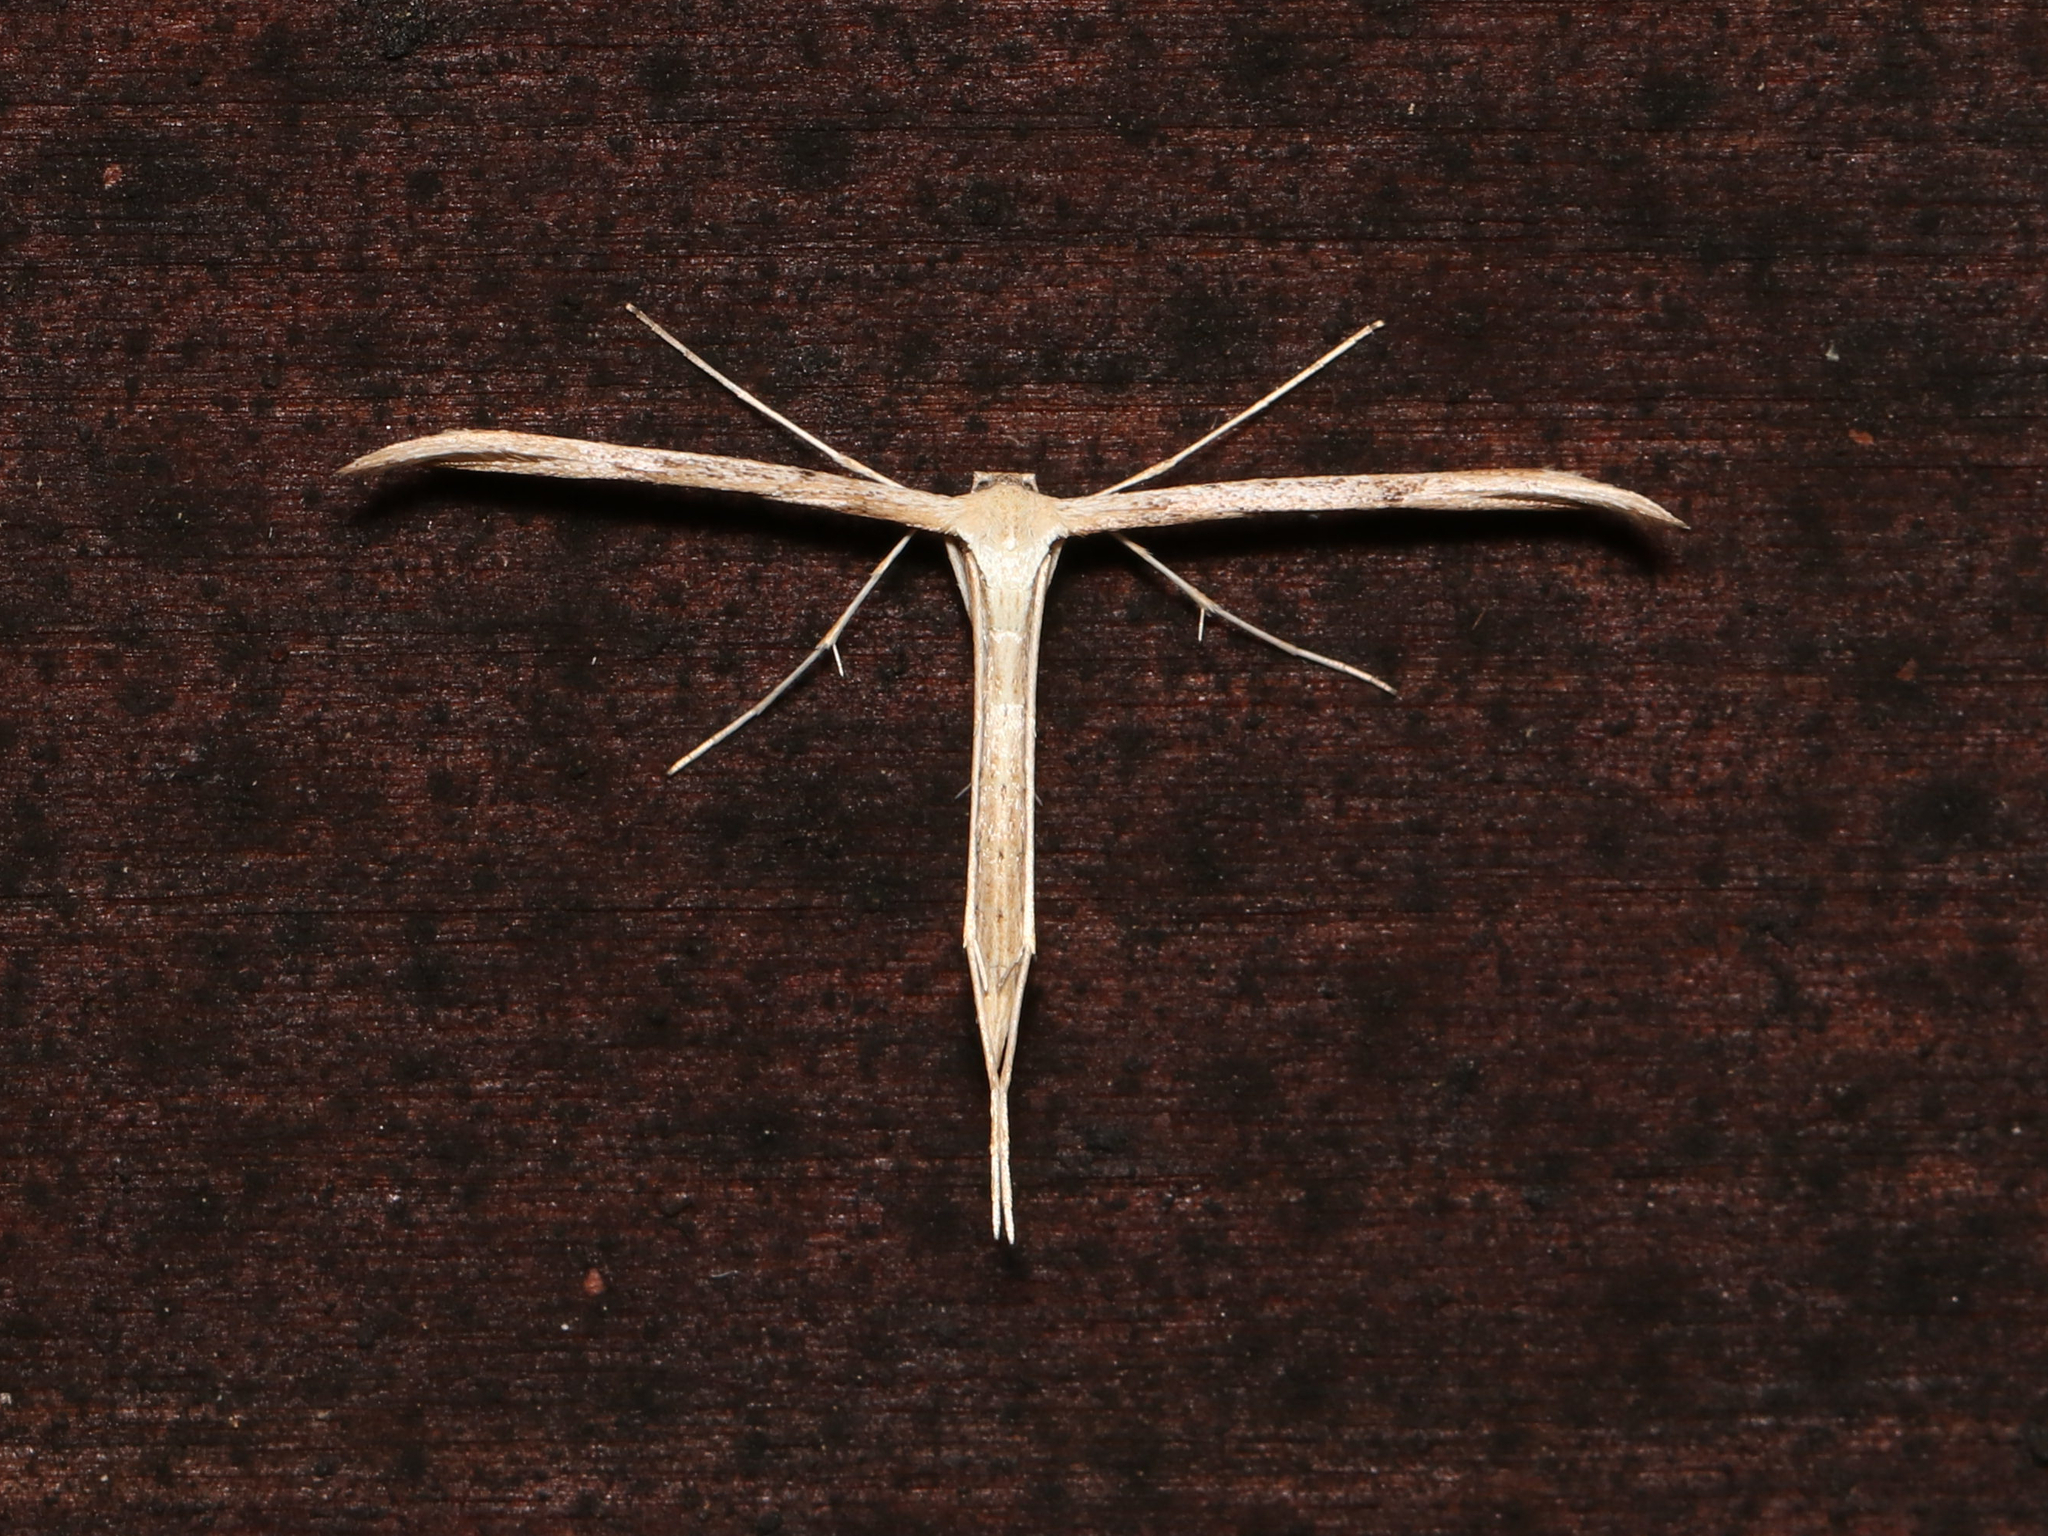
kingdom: Animalia
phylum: Arthropoda
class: Insecta
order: Lepidoptera
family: Pterophoridae
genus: Emmelina
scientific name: Emmelina monodactyla
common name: Common plume
